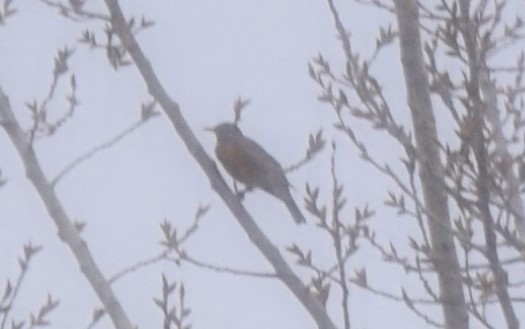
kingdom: Animalia
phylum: Chordata
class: Aves
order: Passeriformes
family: Turdidae
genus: Turdus
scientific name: Turdus migratorius
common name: American robin
